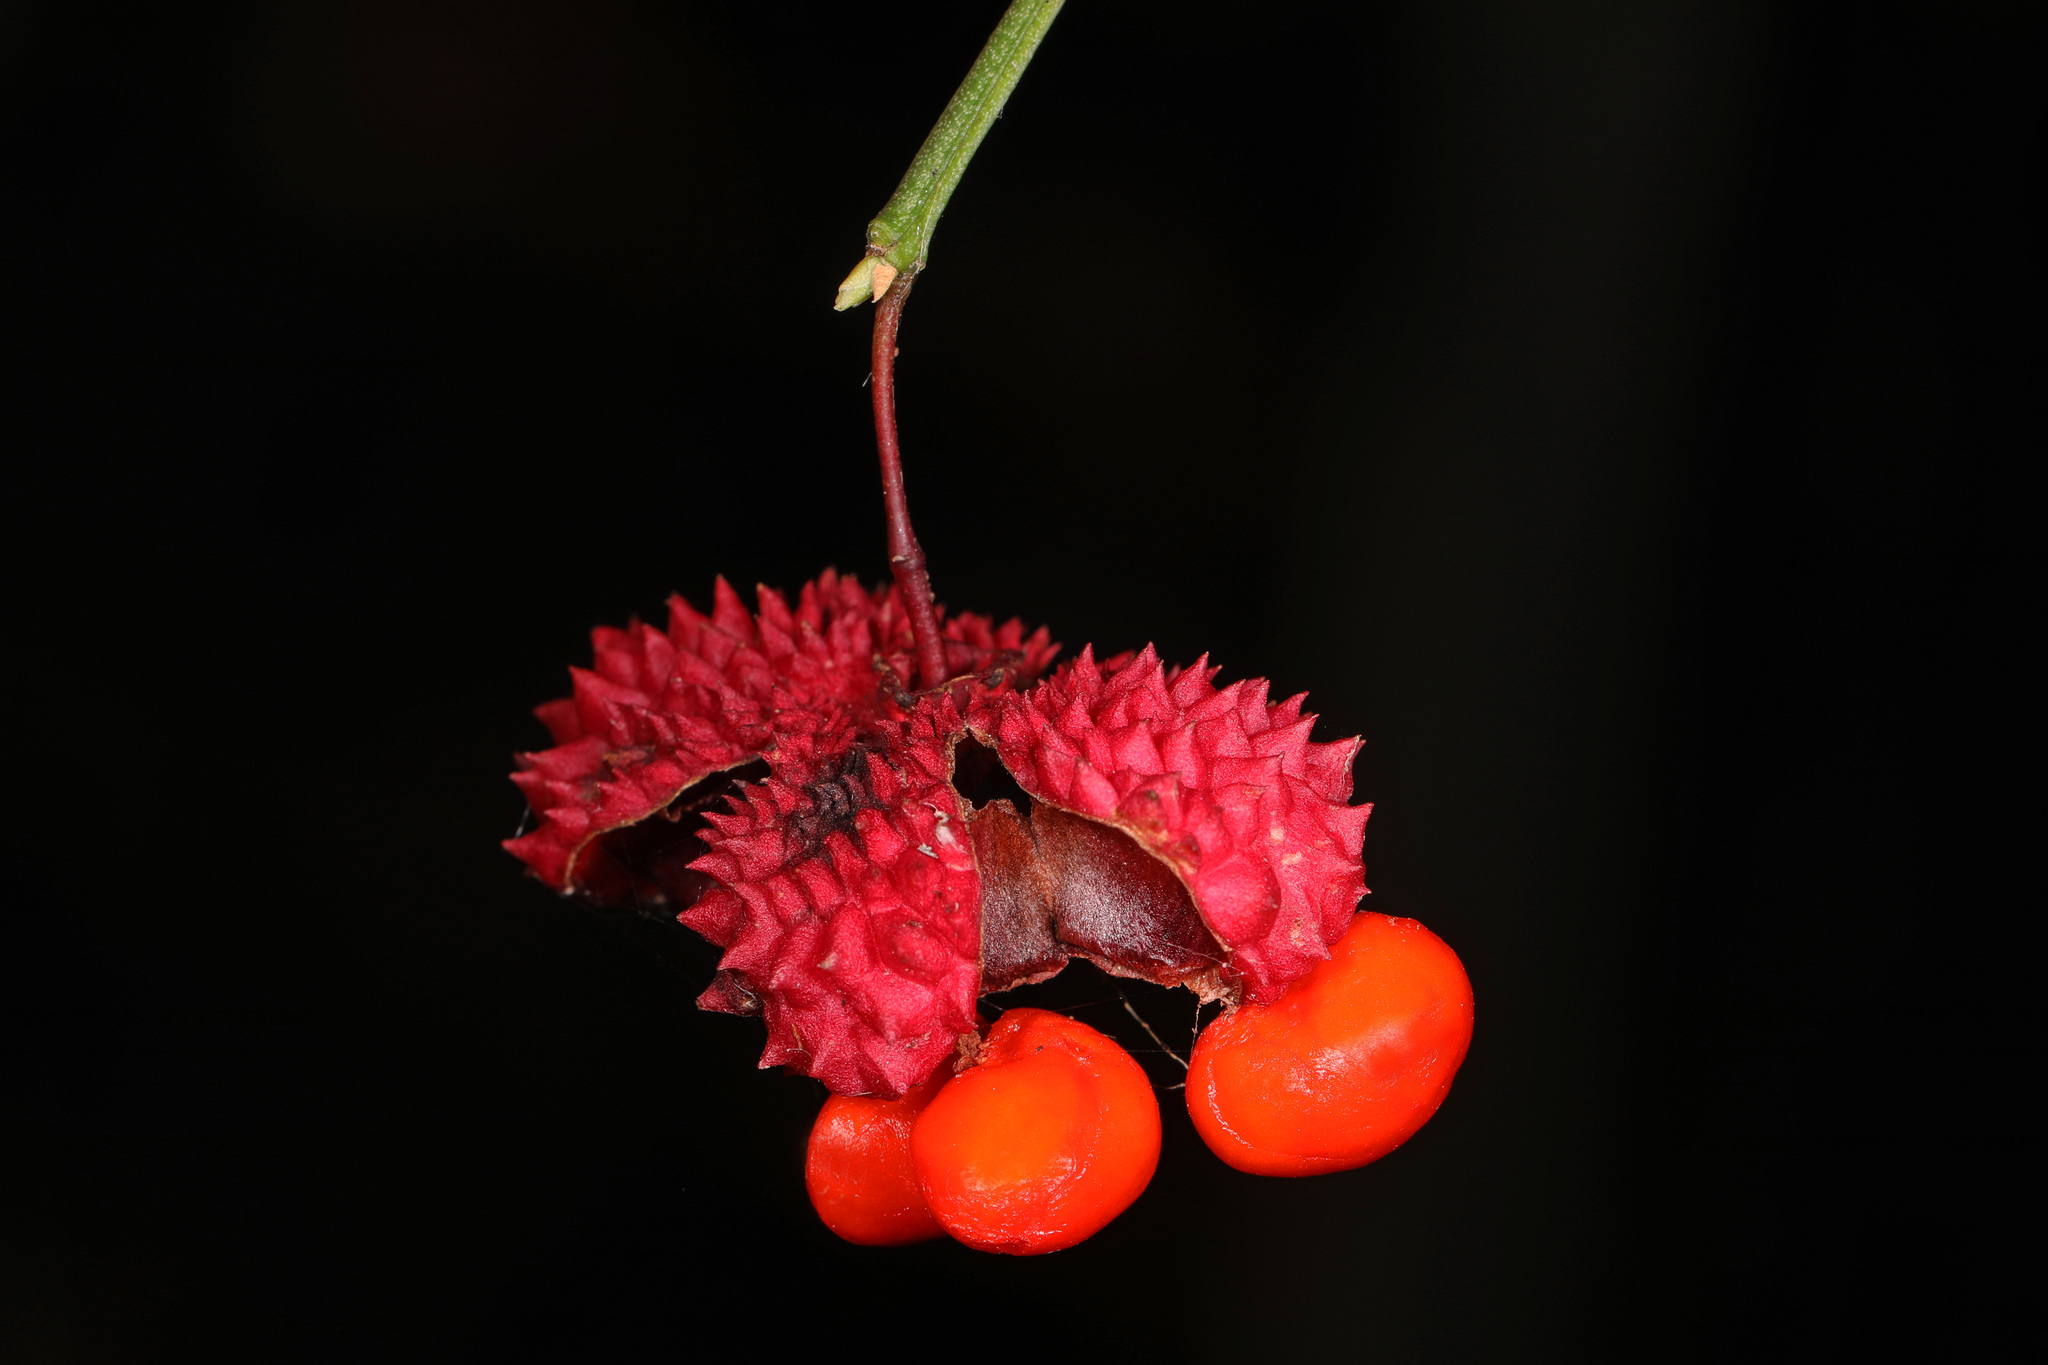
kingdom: Plantae
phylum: Tracheophyta
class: Magnoliopsida
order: Celastrales
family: Celastraceae
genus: Euonymus
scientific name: Euonymus americanus
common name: Bursting-heart
